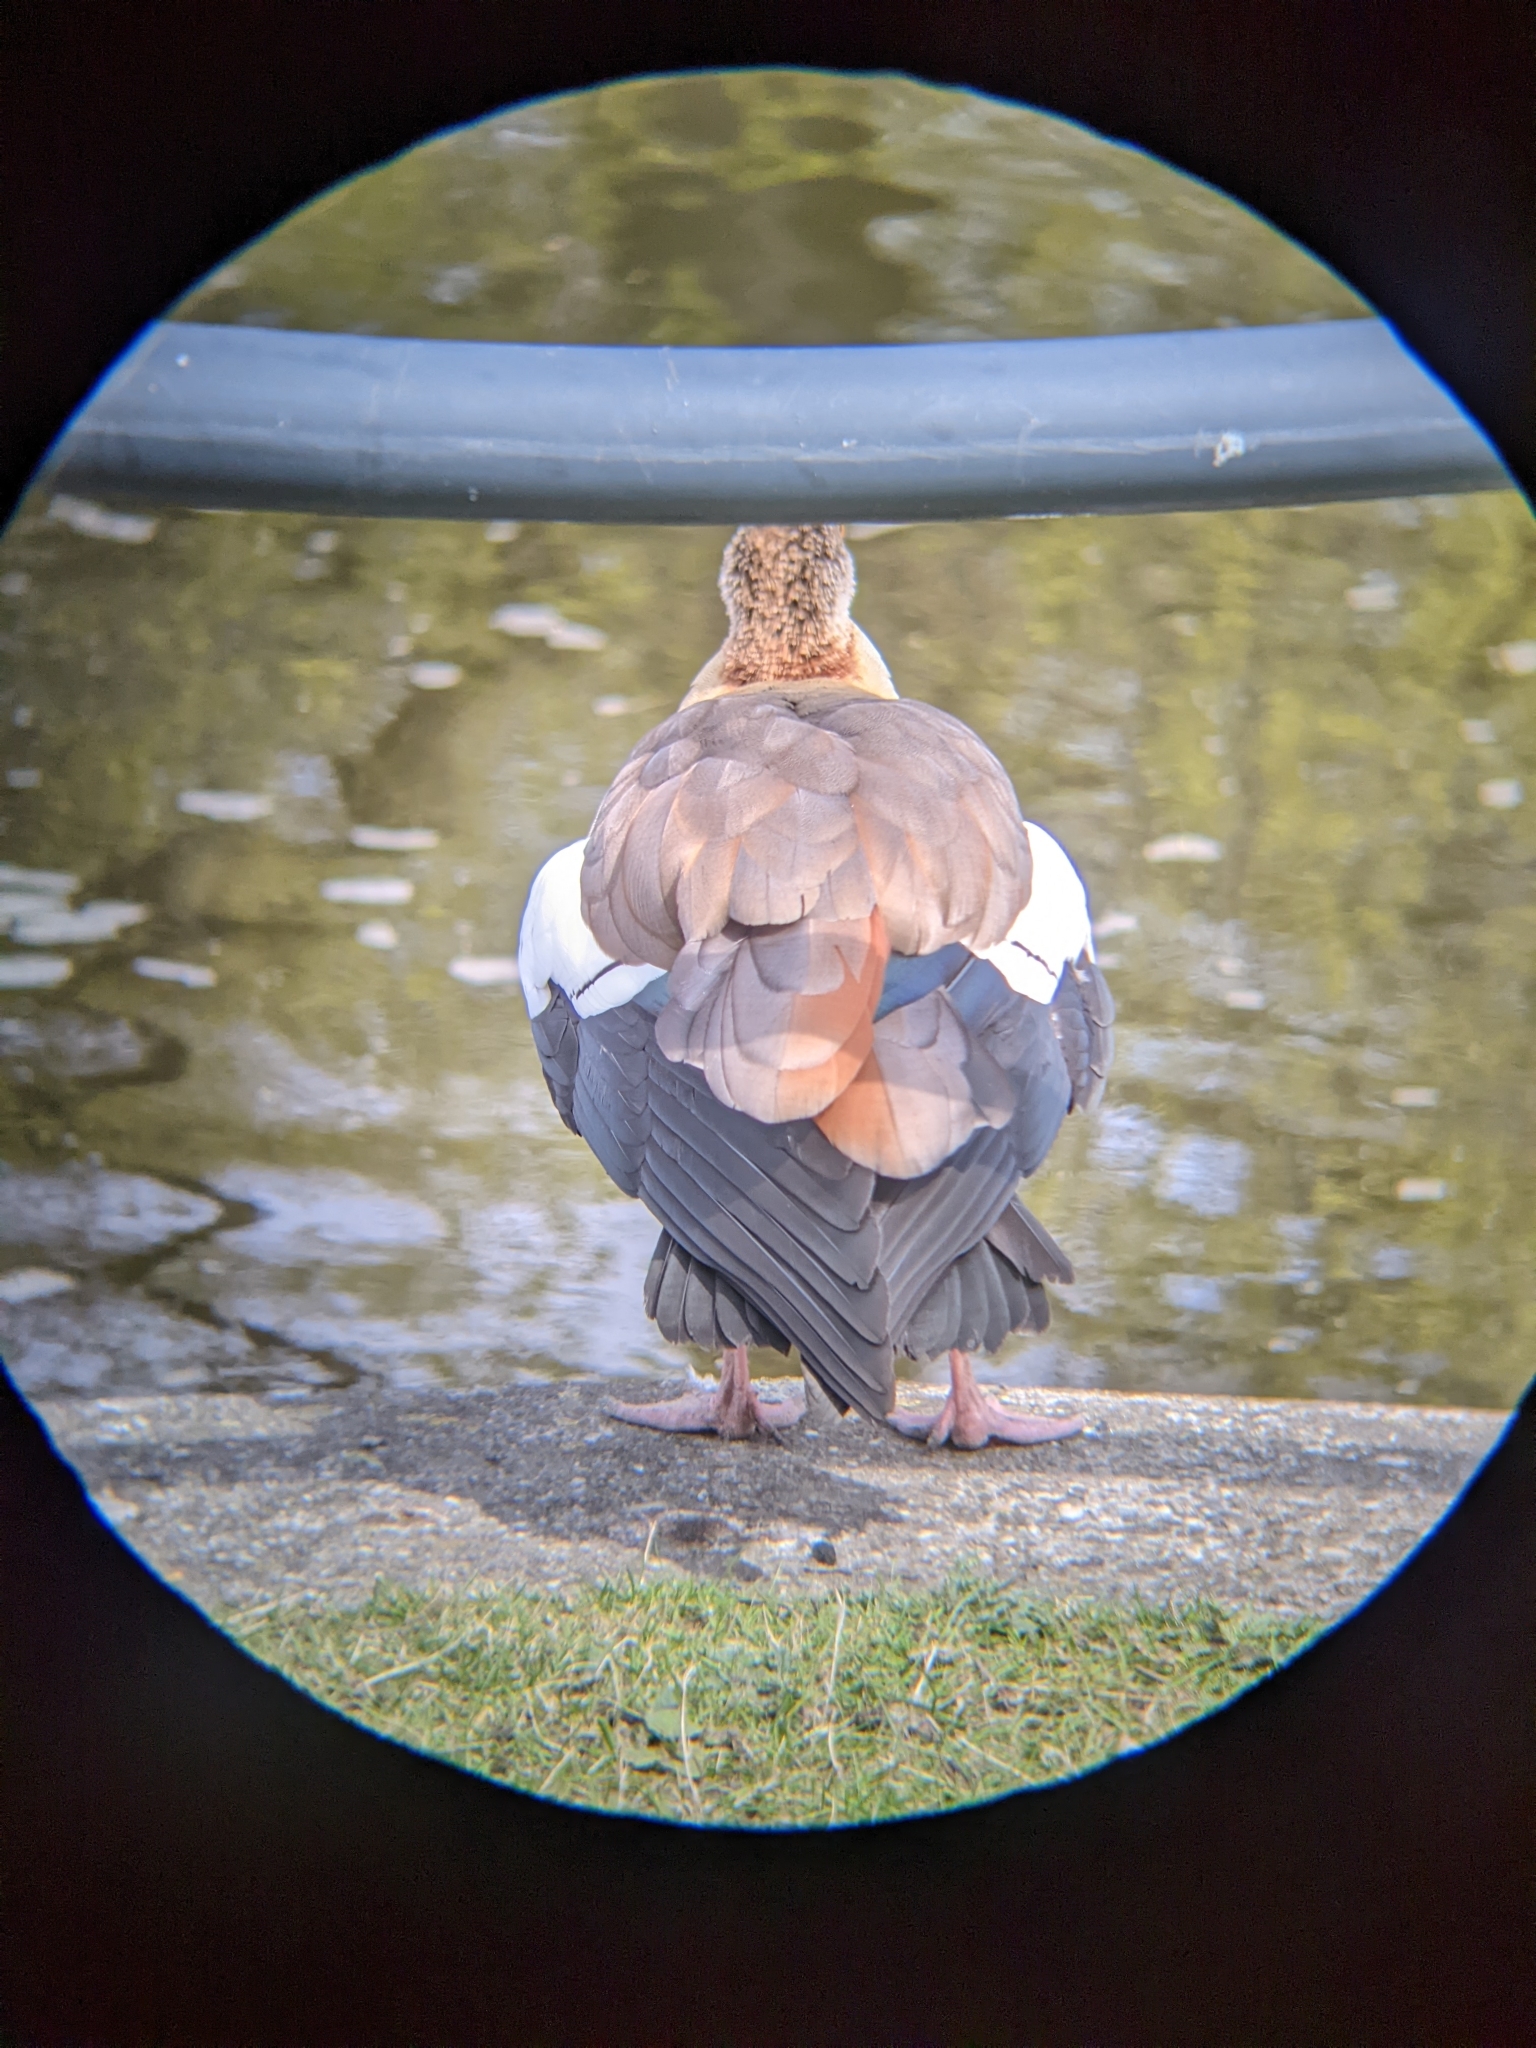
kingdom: Animalia
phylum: Chordata
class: Aves
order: Anseriformes
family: Anatidae
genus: Alopochen
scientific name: Alopochen aegyptiaca
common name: Egyptian goose
